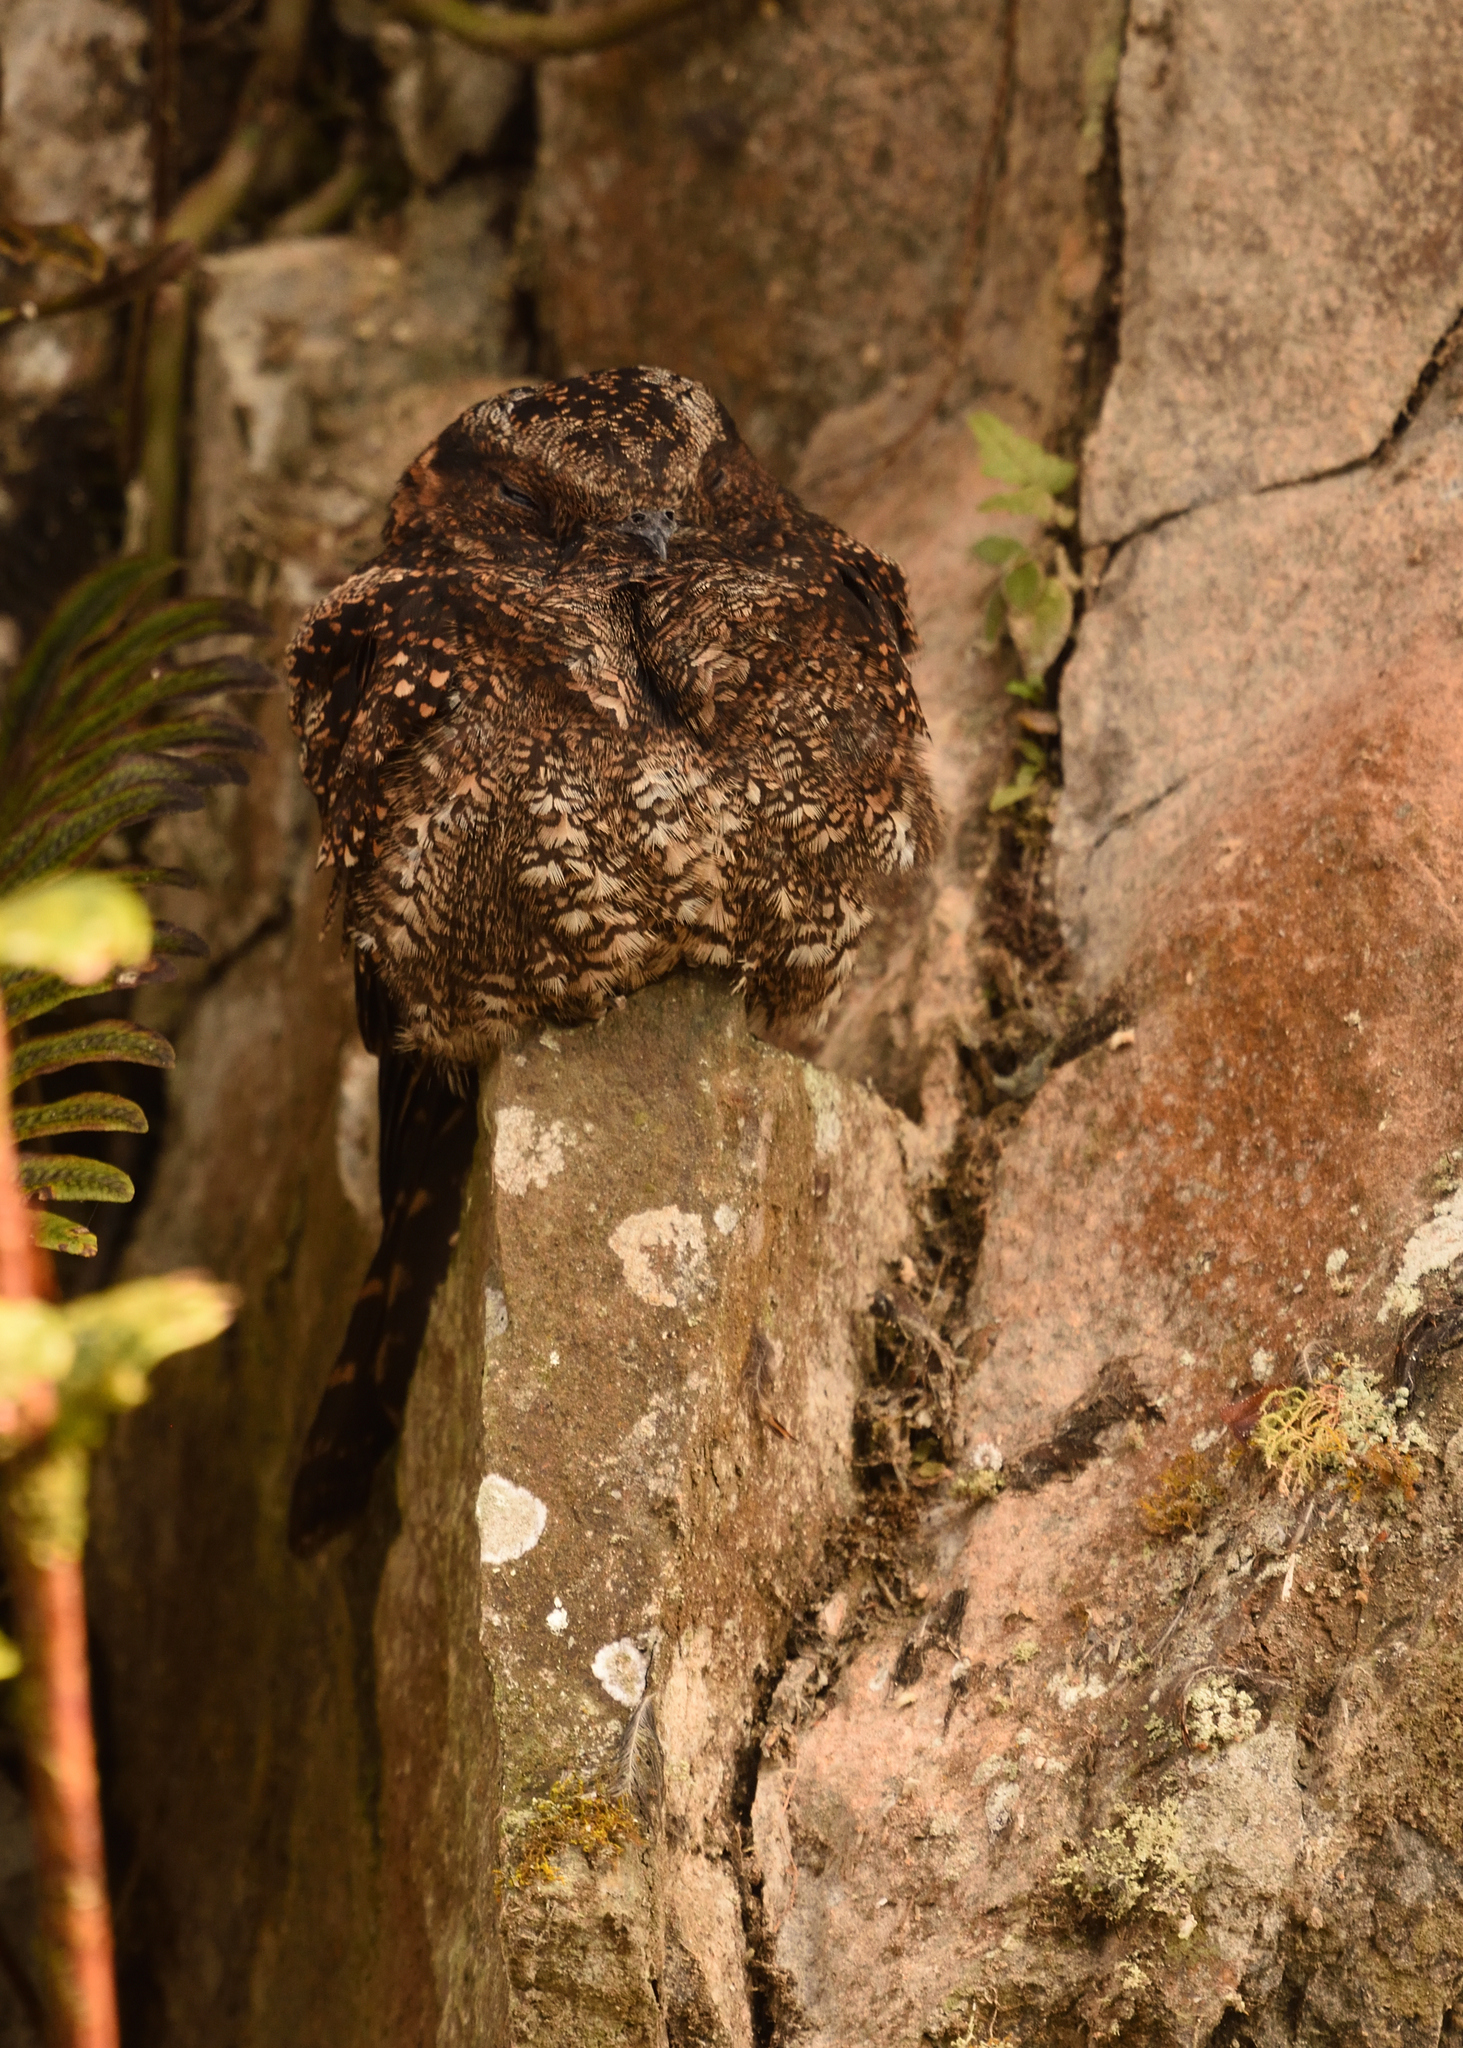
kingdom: Animalia
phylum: Chordata
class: Aves
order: Caprimulgiformes
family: Caprimulgidae
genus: Uropsalis
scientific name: Uropsalis lyra
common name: Lyre-tailed nightjar
